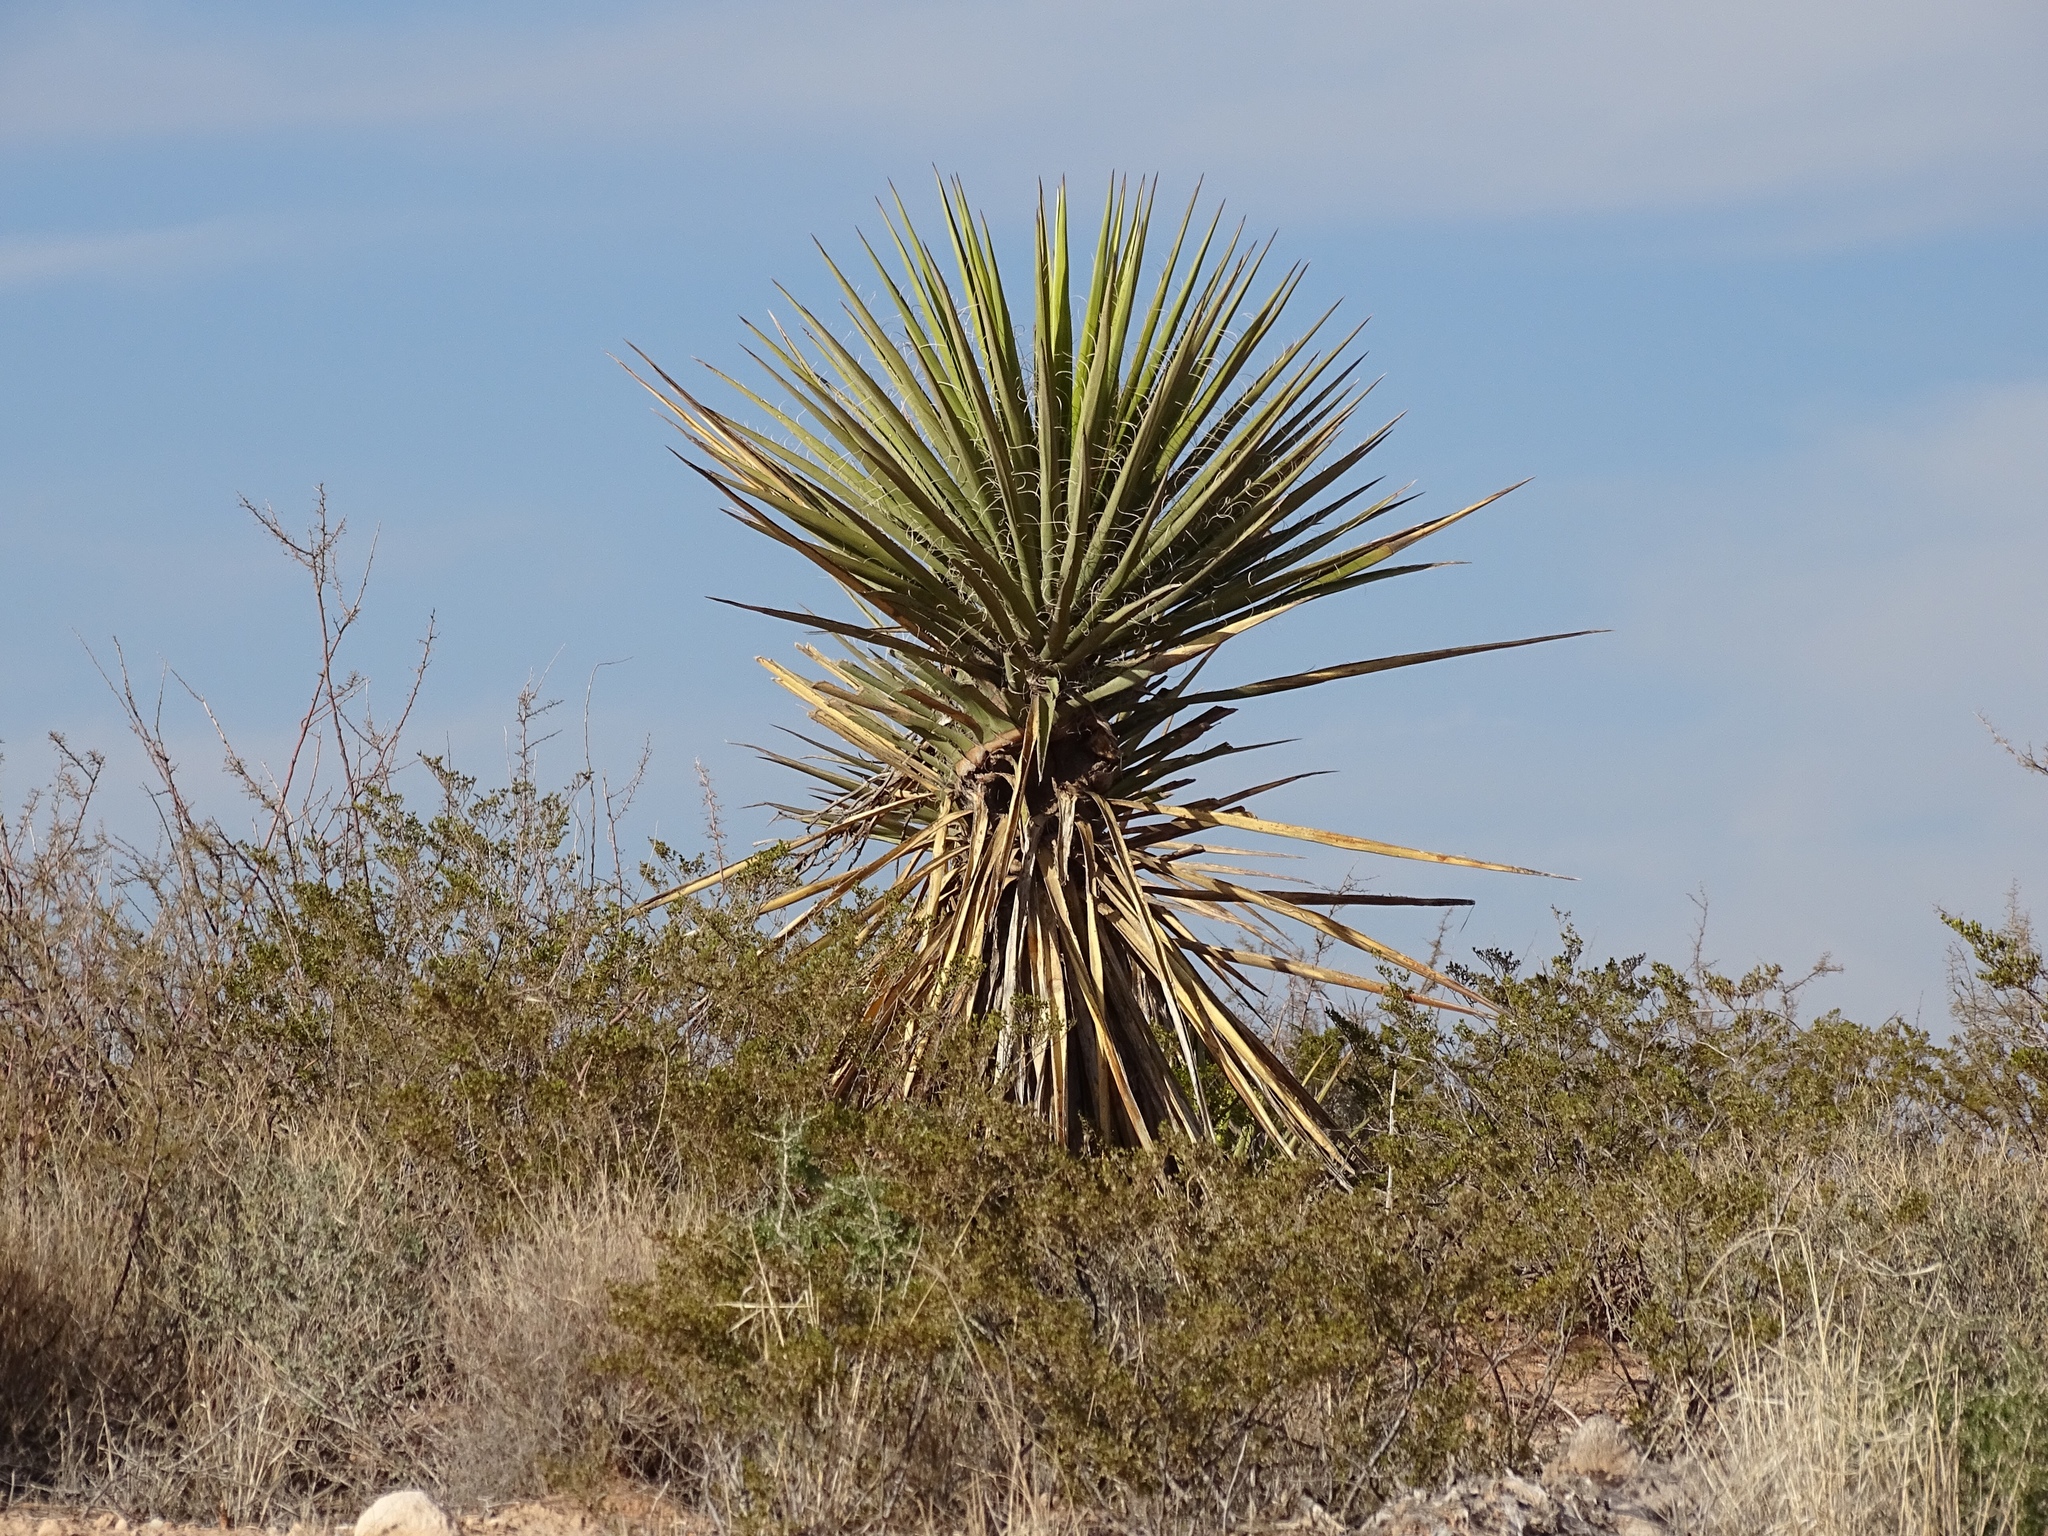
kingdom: Plantae
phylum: Tracheophyta
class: Liliopsida
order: Asparagales
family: Asparagaceae
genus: Yucca
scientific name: Yucca treculiana
